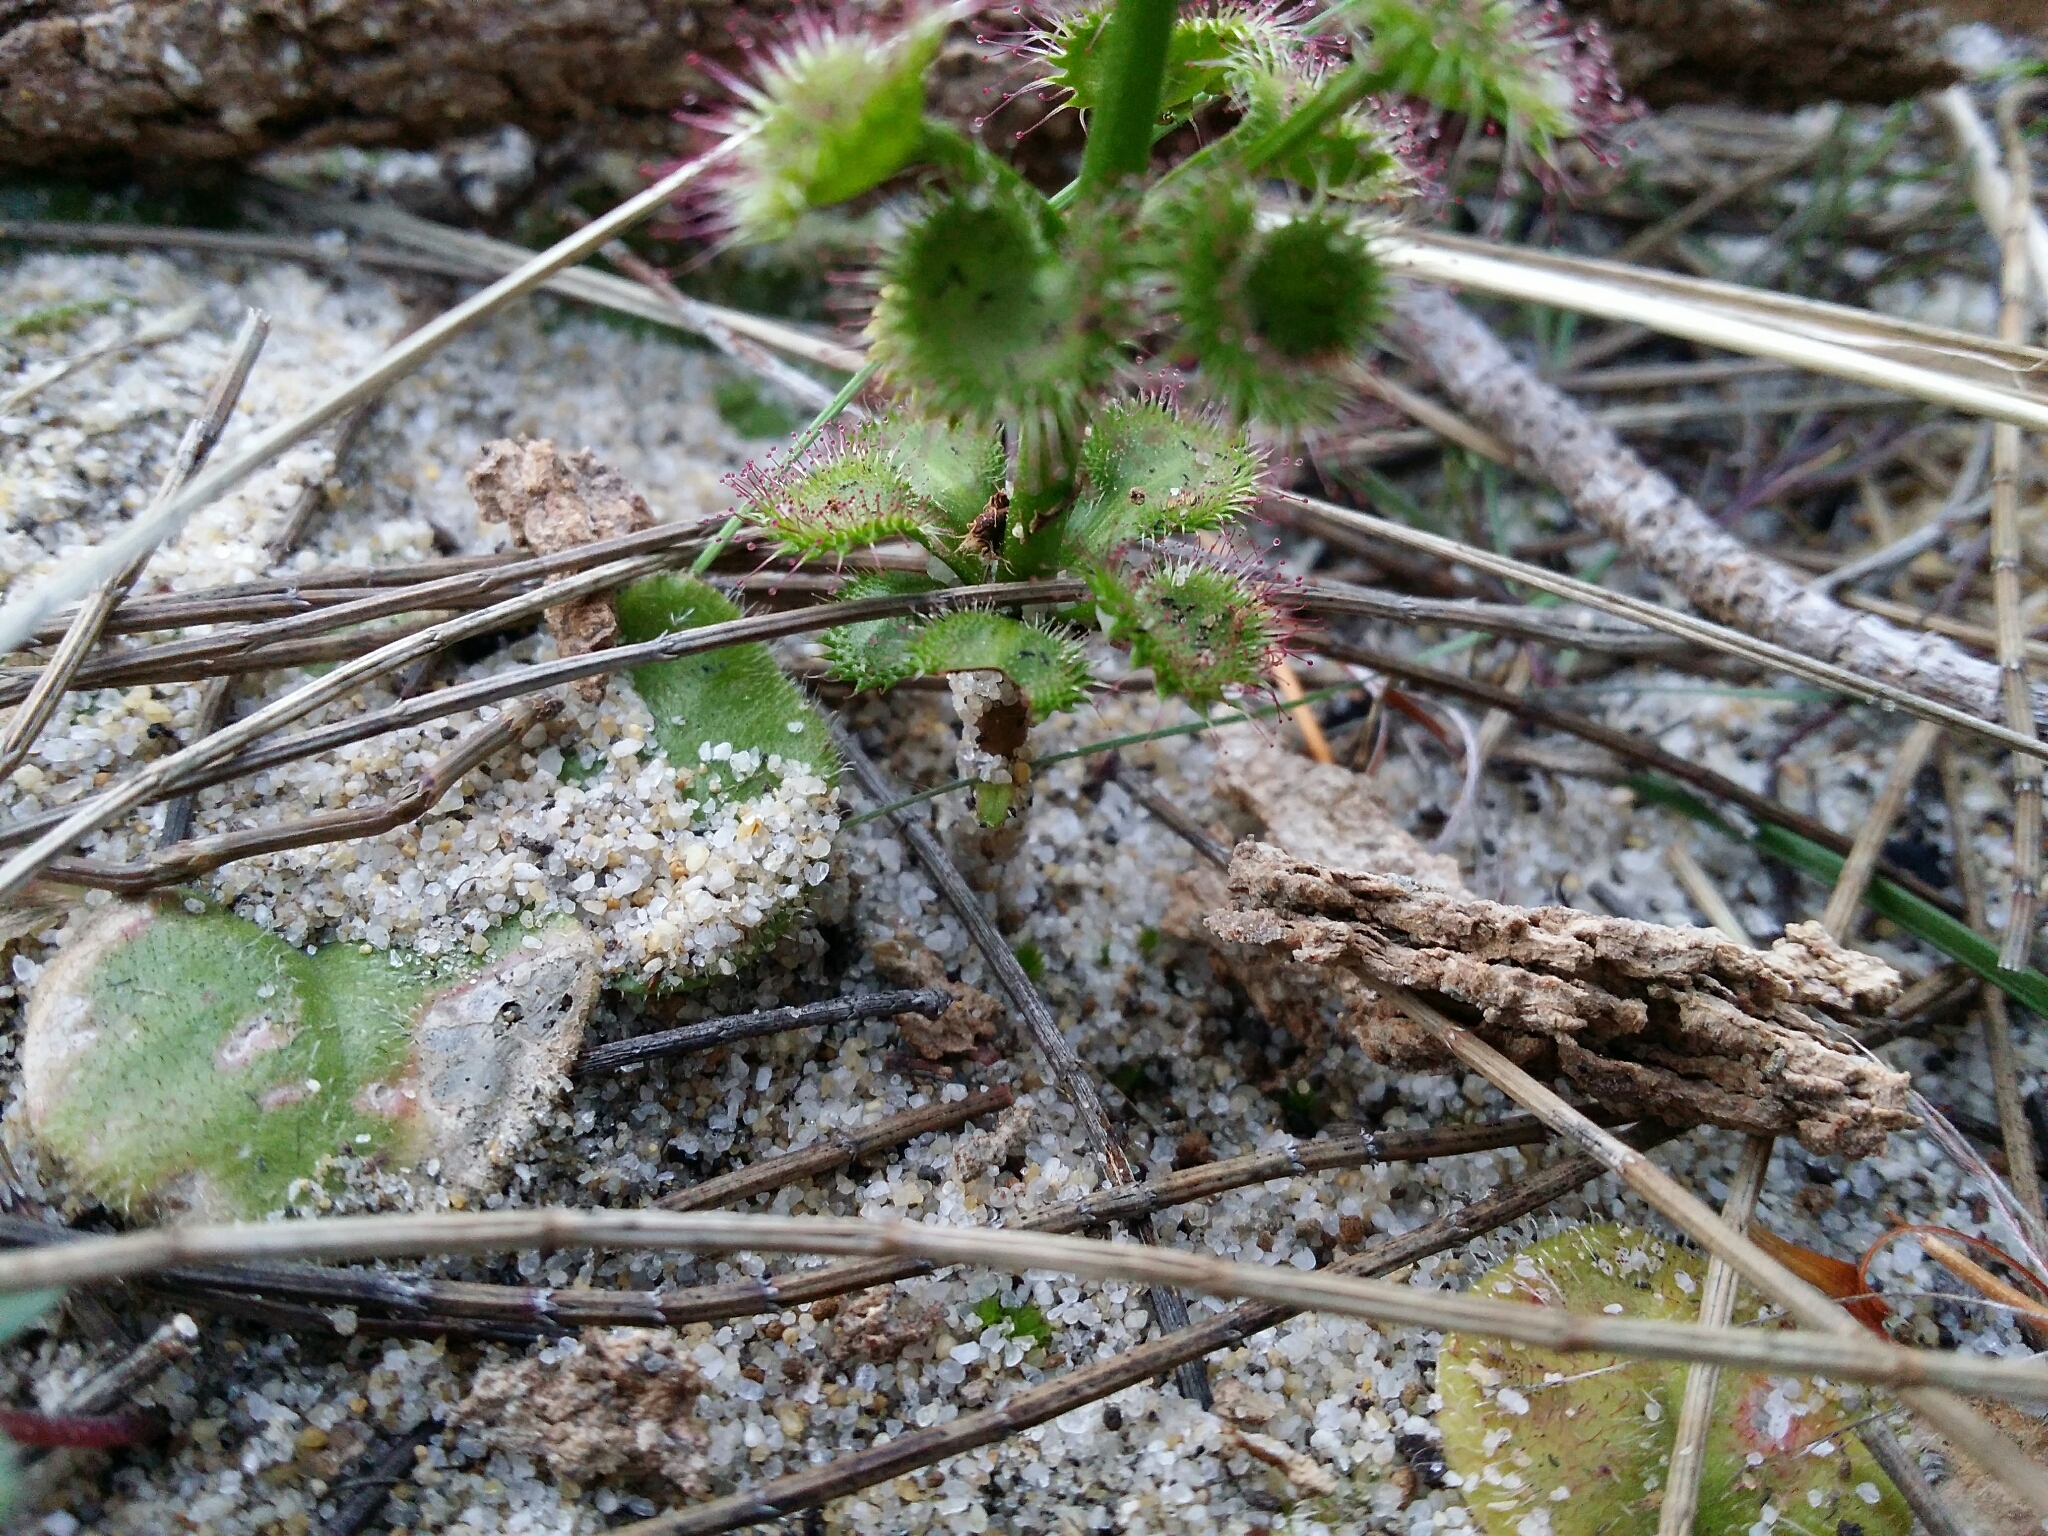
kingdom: Plantae
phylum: Tracheophyta
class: Magnoliopsida
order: Caryophyllales
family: Droseraceae
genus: Drosera
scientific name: Drosera stolonifera
